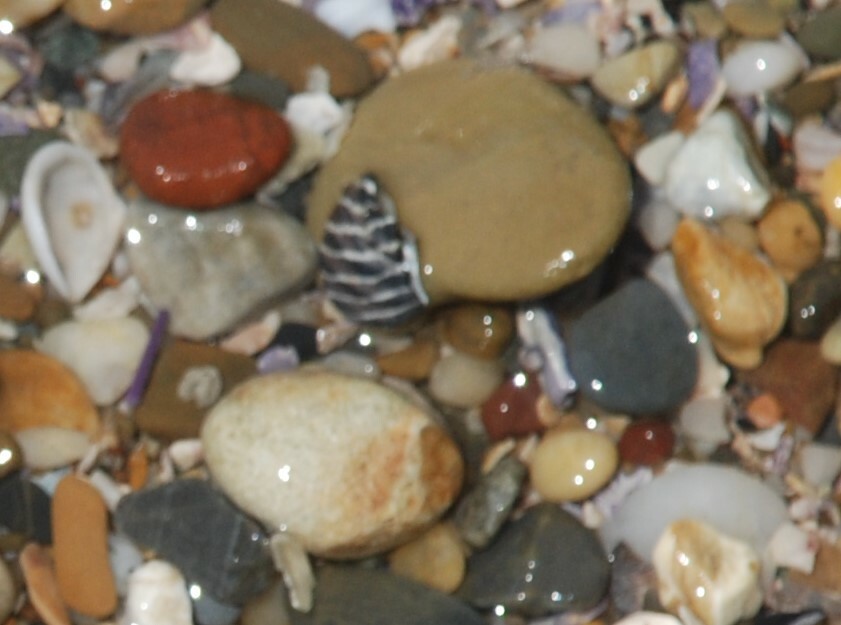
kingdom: Animalia
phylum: Mollusca
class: Gastropoda
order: Trochida
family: Trochidae
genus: Austrocochlea
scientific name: Austrocochlea porcata
